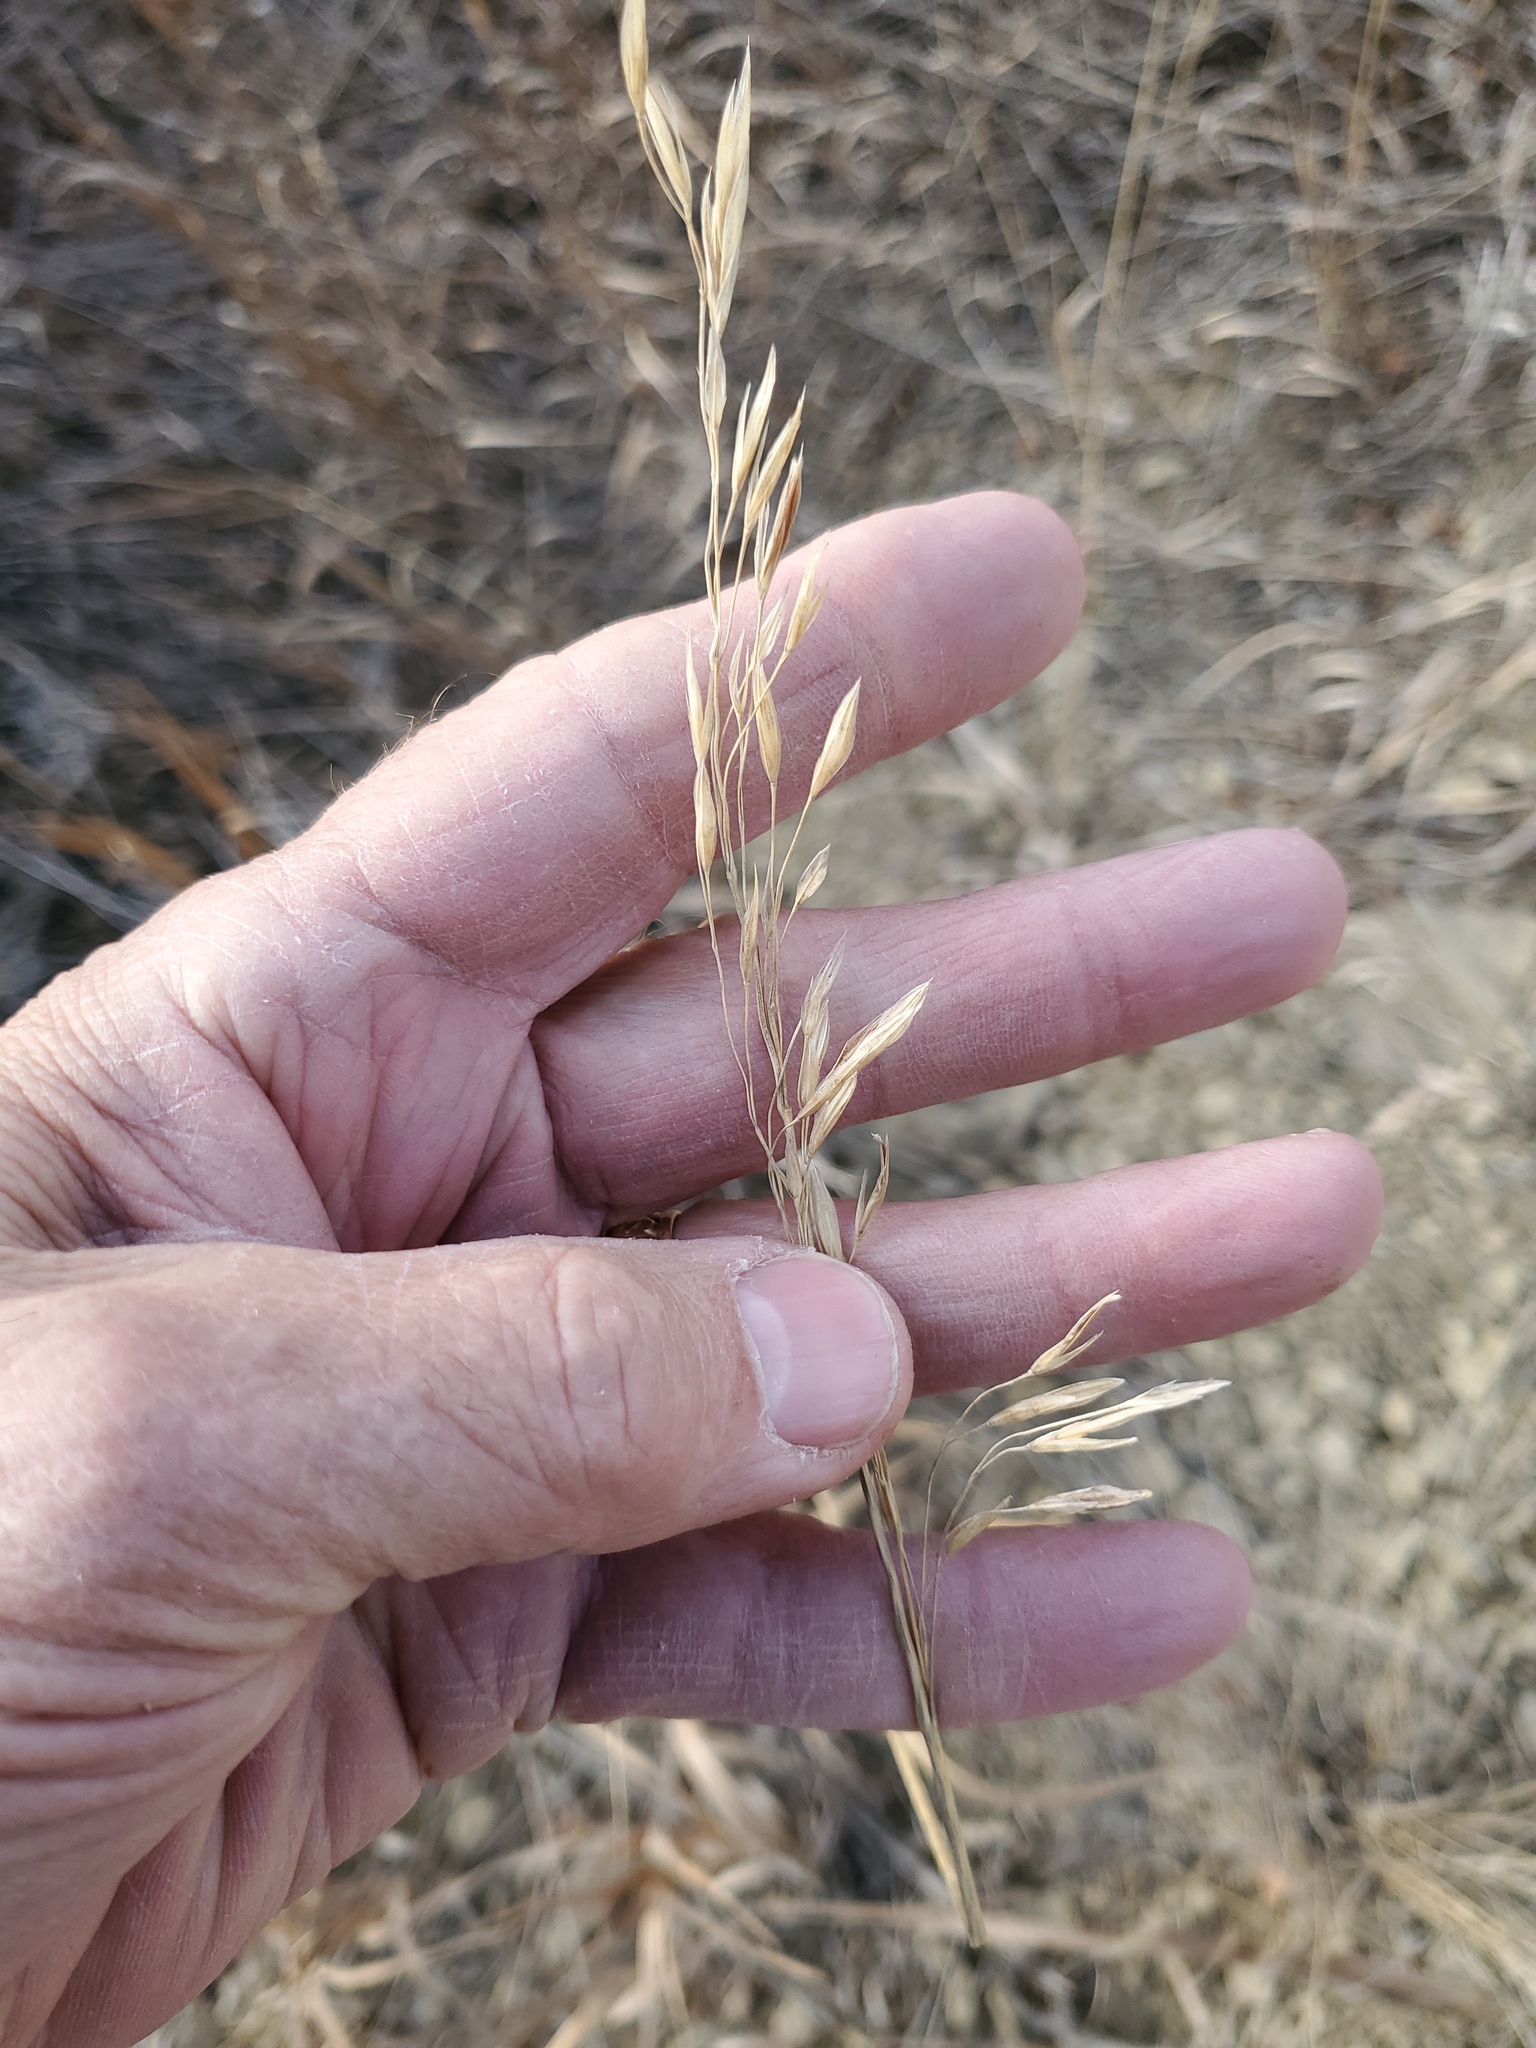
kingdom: Plantae
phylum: Tracheophyta
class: Liliopsida
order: Poales
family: Poaceae
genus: Bromus
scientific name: Bromus inermis
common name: Smooth brome
